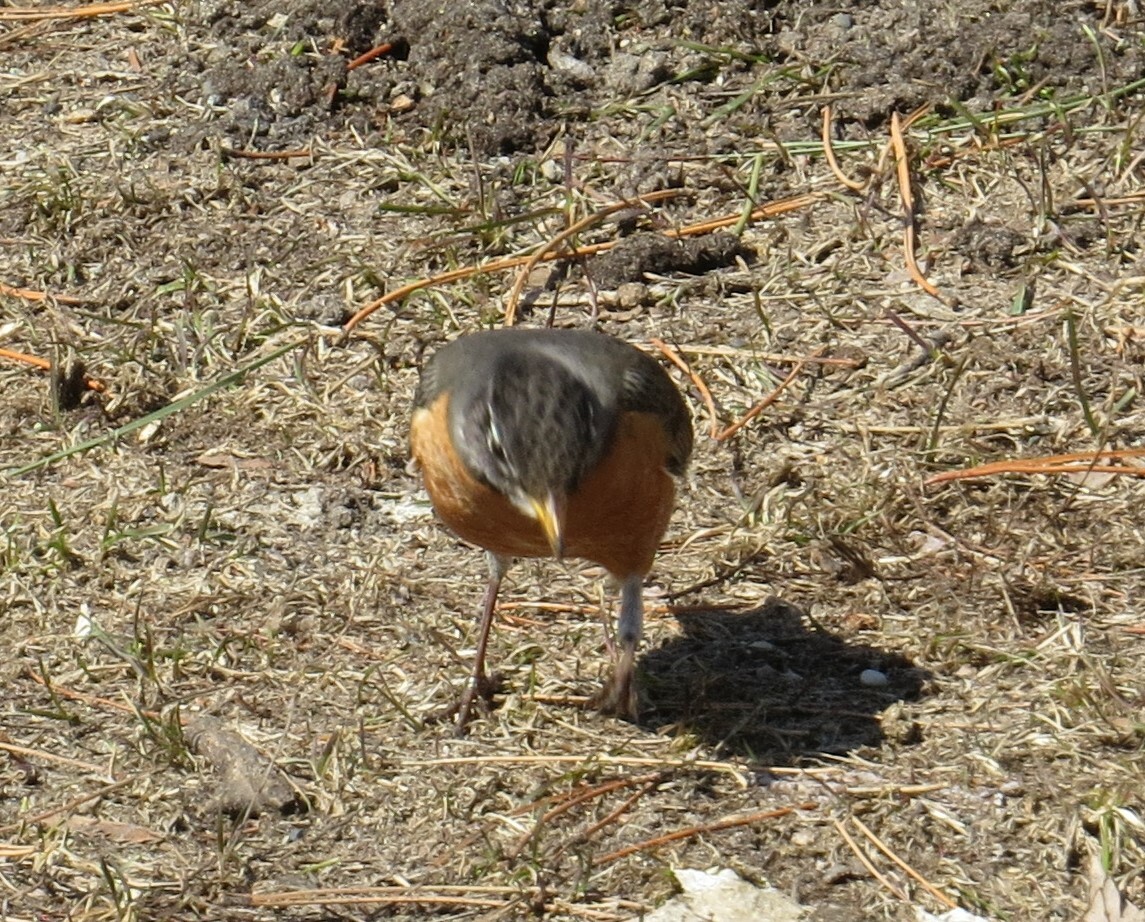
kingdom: Animalia
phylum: Chordata
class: Aves
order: Passeriformes
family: Turdidae
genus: Turdus
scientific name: Turdus migratorius
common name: American robin
